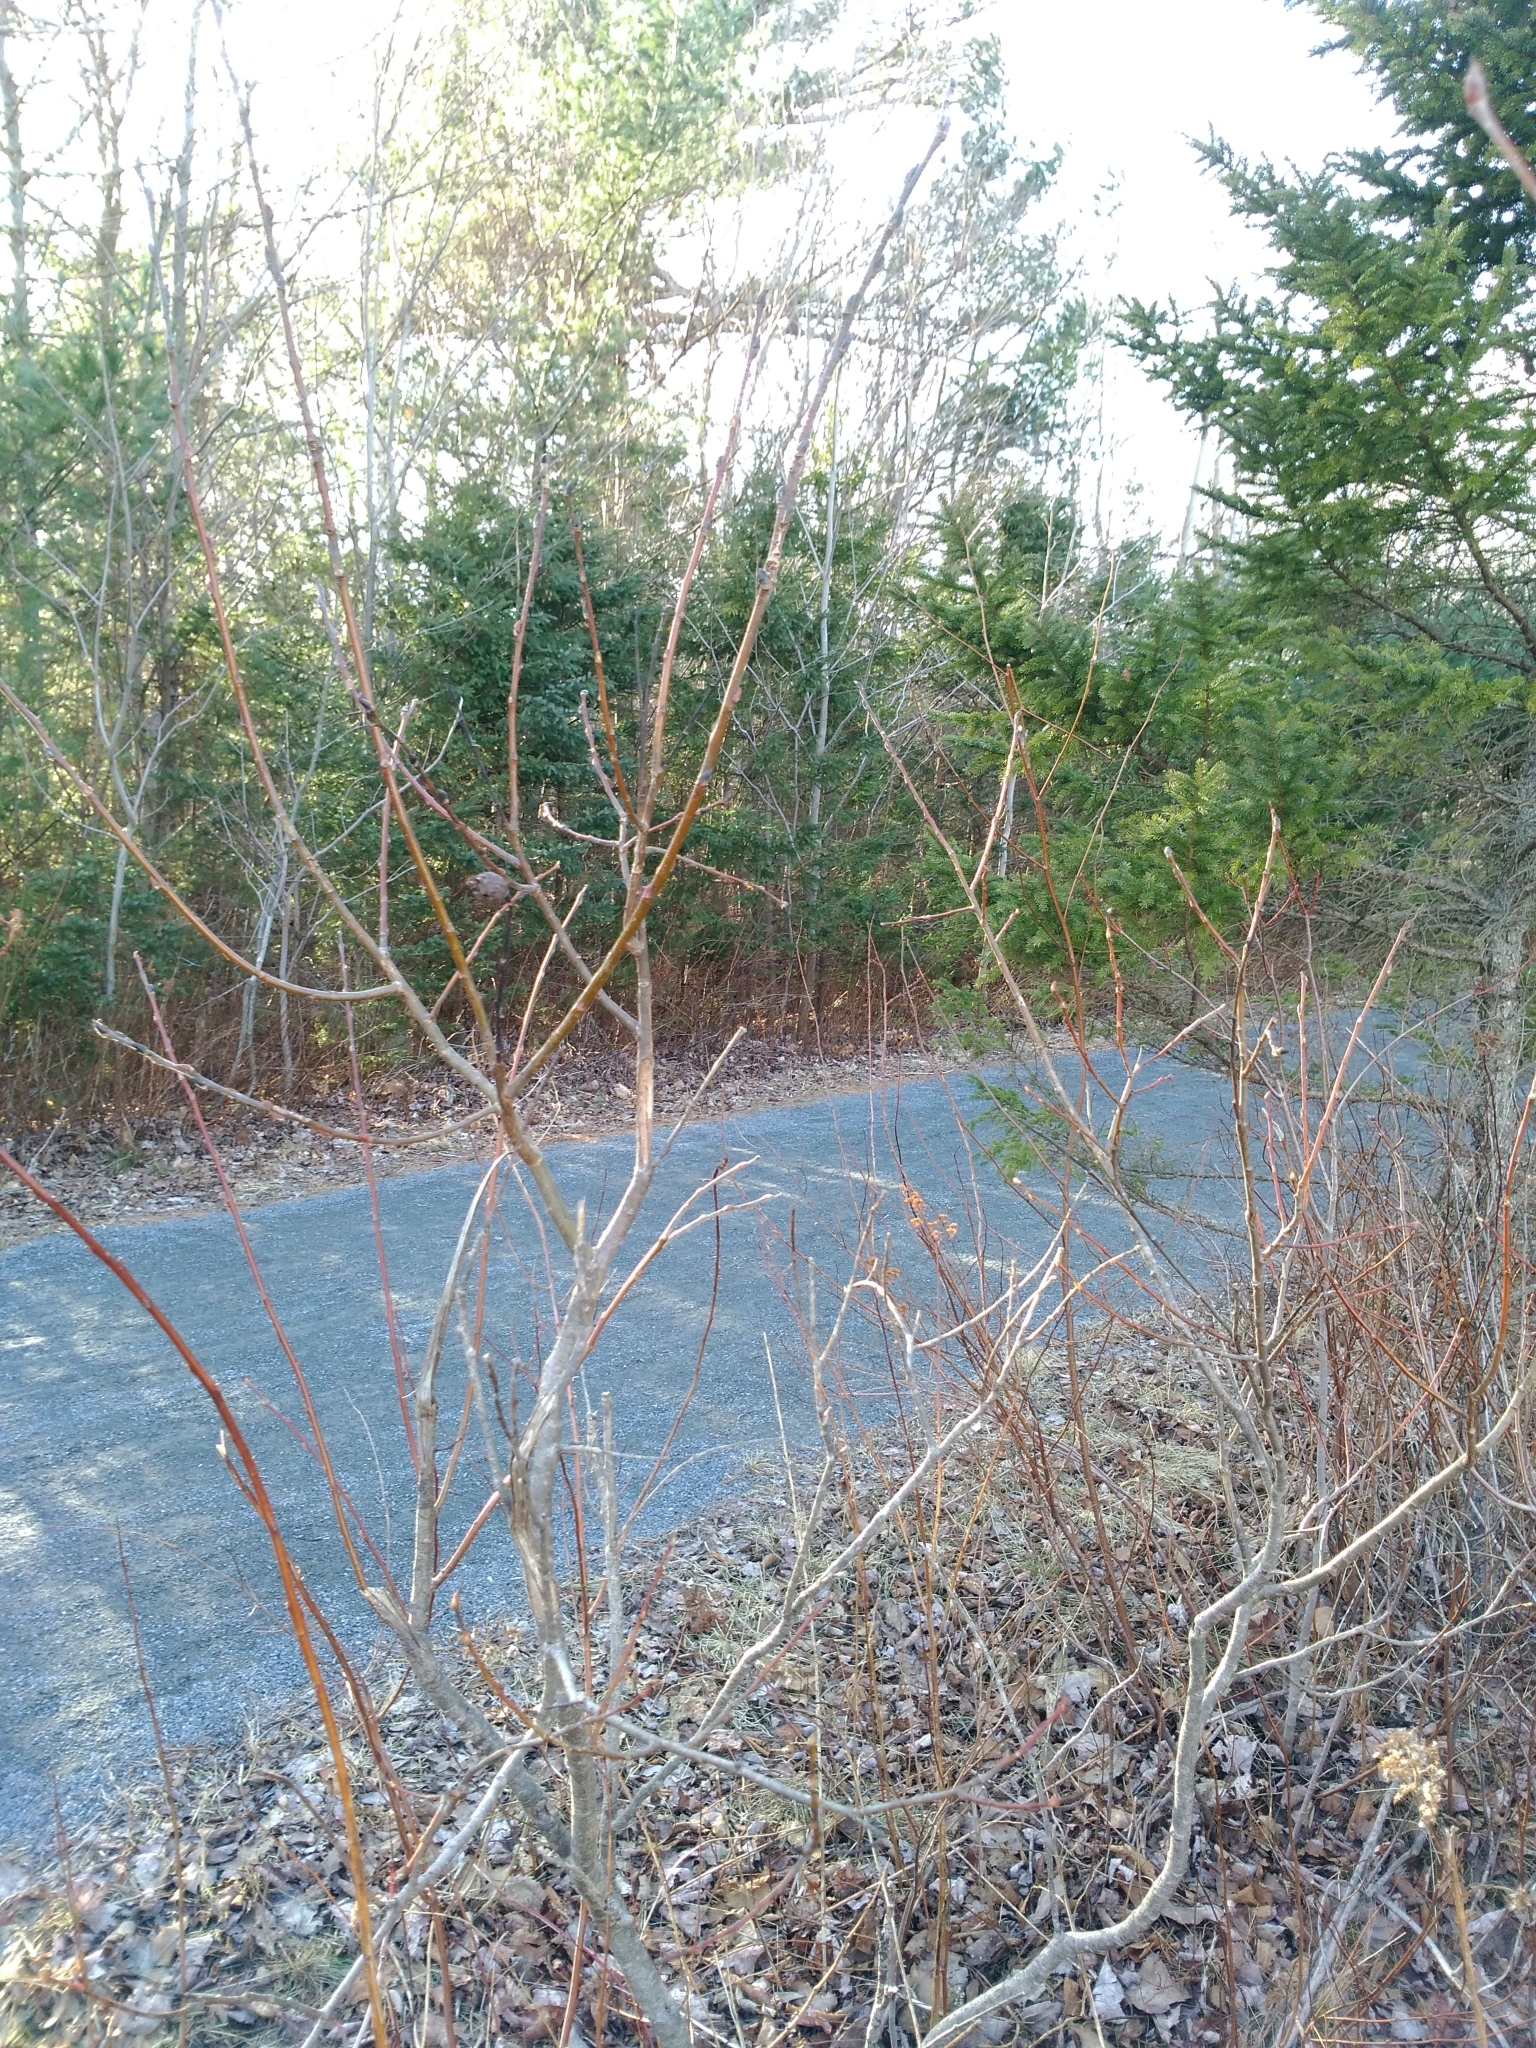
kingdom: Animalia
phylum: Arthropoda
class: Insecta
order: Diptera
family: Cecidomyiidae
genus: Rabdophaga
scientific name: Rabdophaga strobiloides
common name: Willow pinecone gall midge
